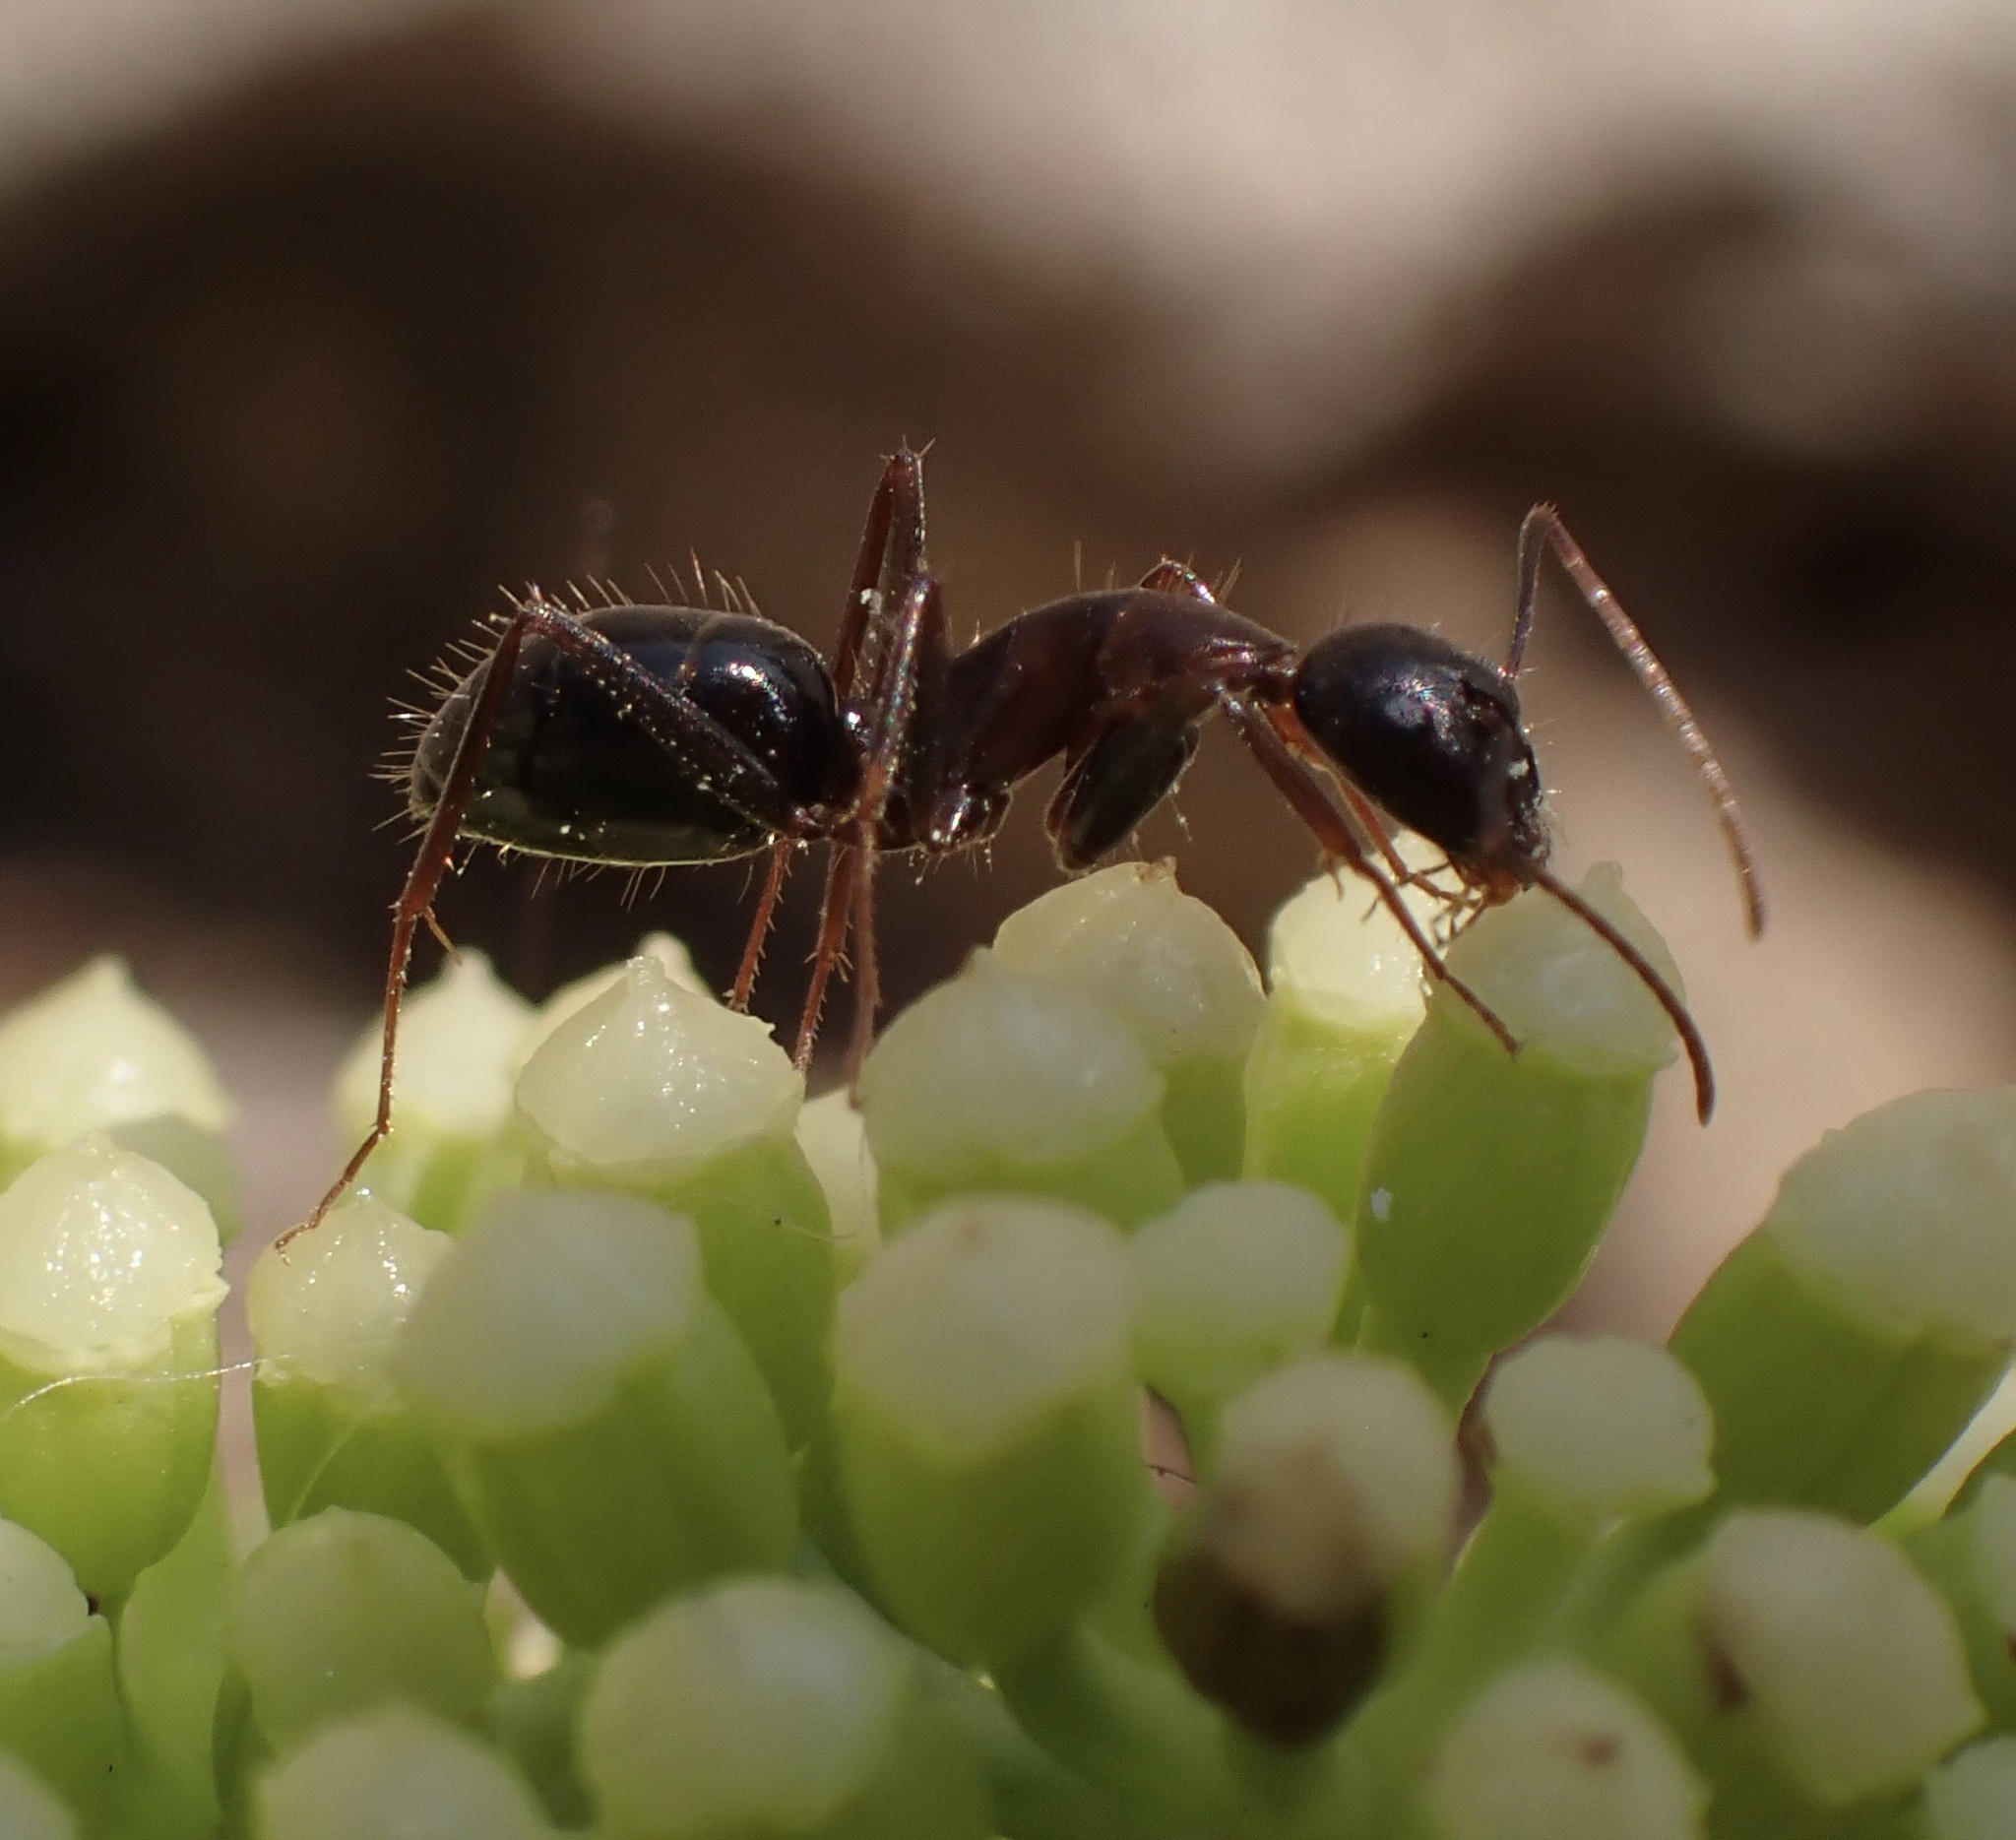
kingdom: Animalia
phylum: Arthropoda
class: Insecta
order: Hymenoptera
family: Formicidae
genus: Camponotus
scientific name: Camponotus sylvaticus
